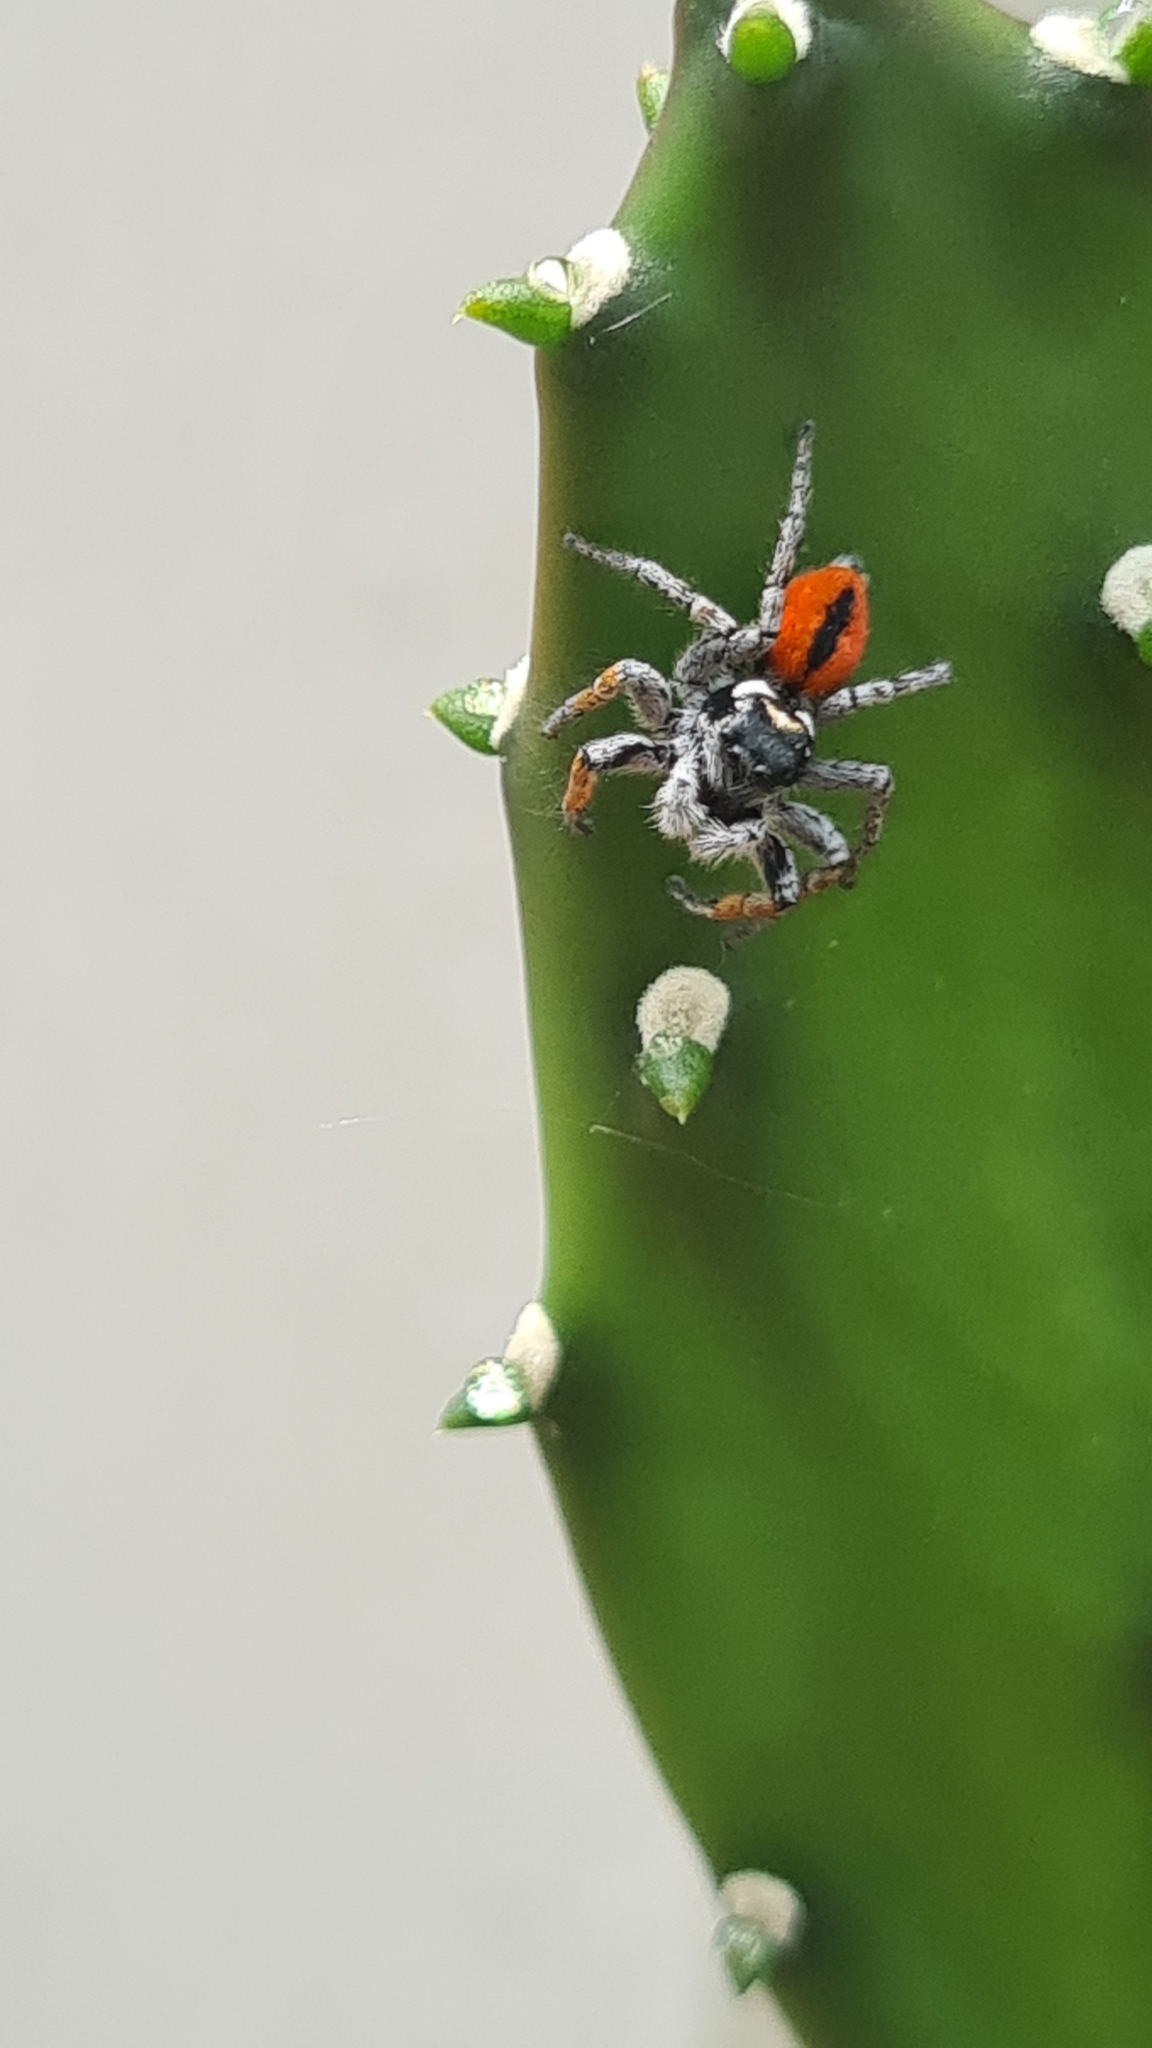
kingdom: Animalia
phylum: Arthropoda
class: Arachnida
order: Araneae
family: Salticidae
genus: Philaeus
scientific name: Philaeus chrysops
